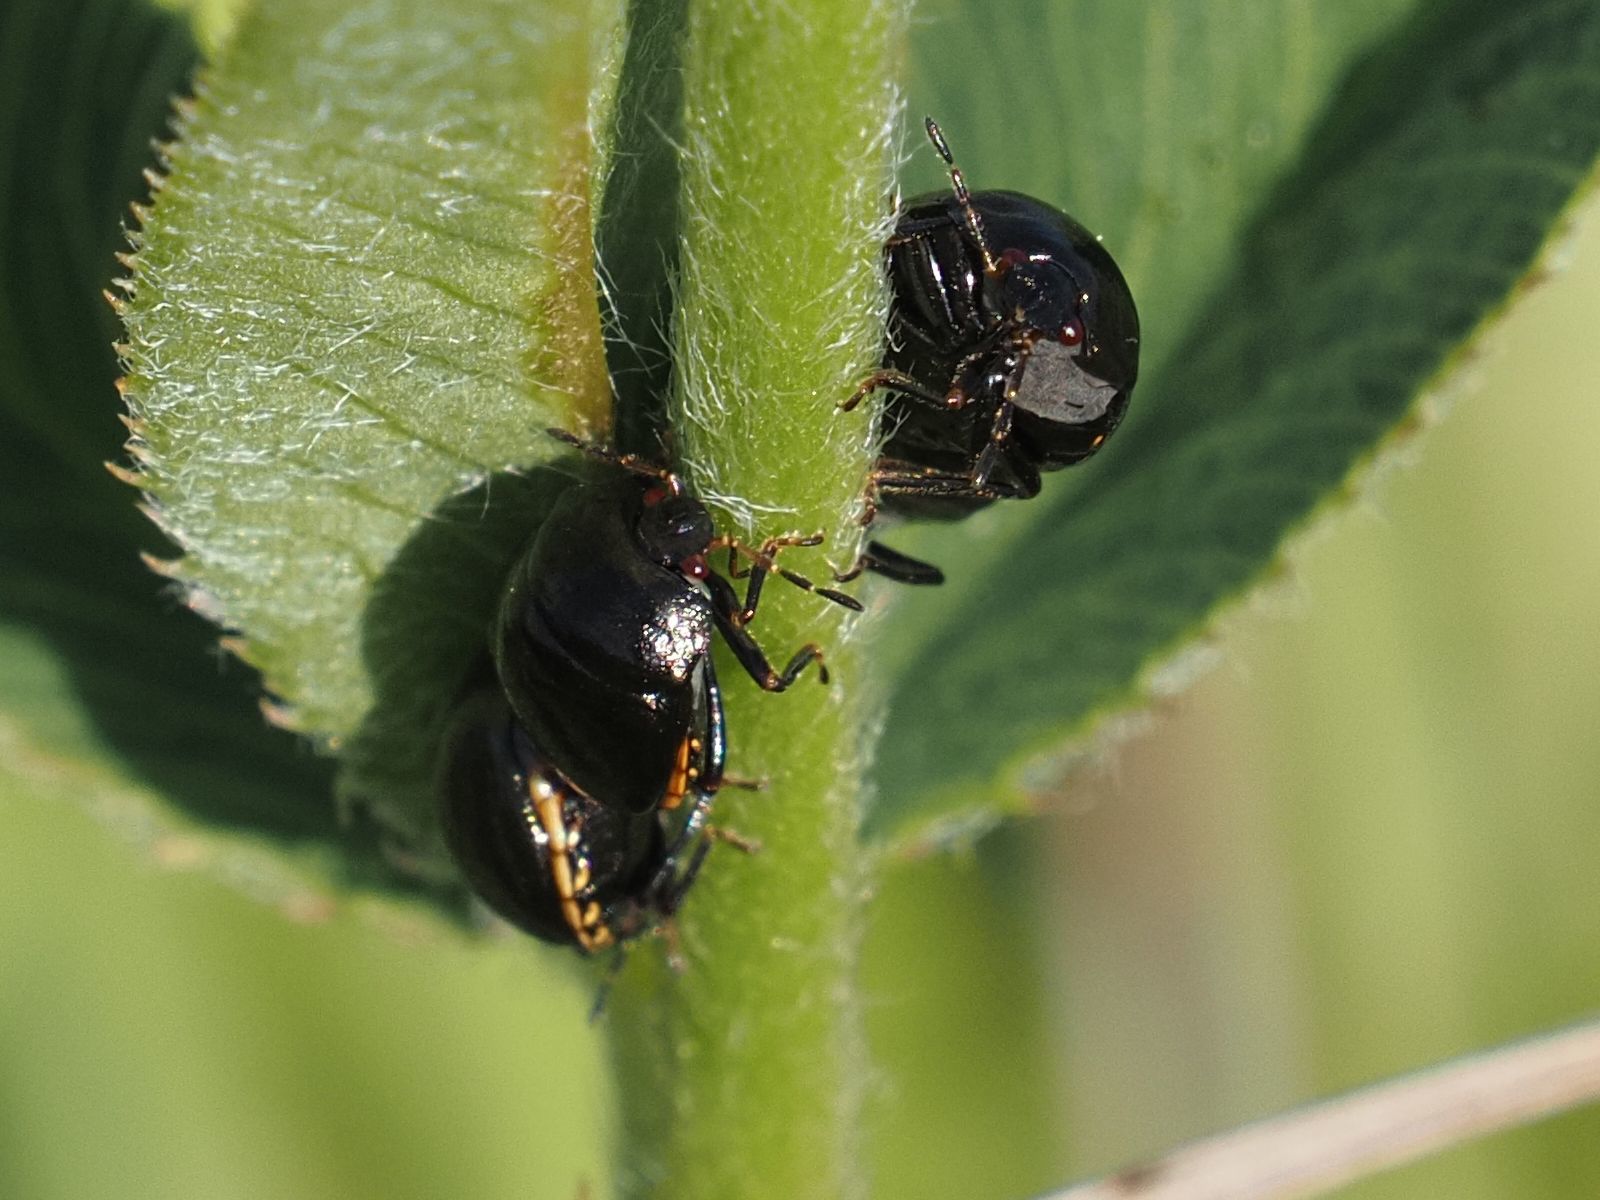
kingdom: Animalia
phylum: Arthropoda
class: Insecta
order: Hemiptera
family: Plataspidae
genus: Coptosoma
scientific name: Coptosoma scutellatum
